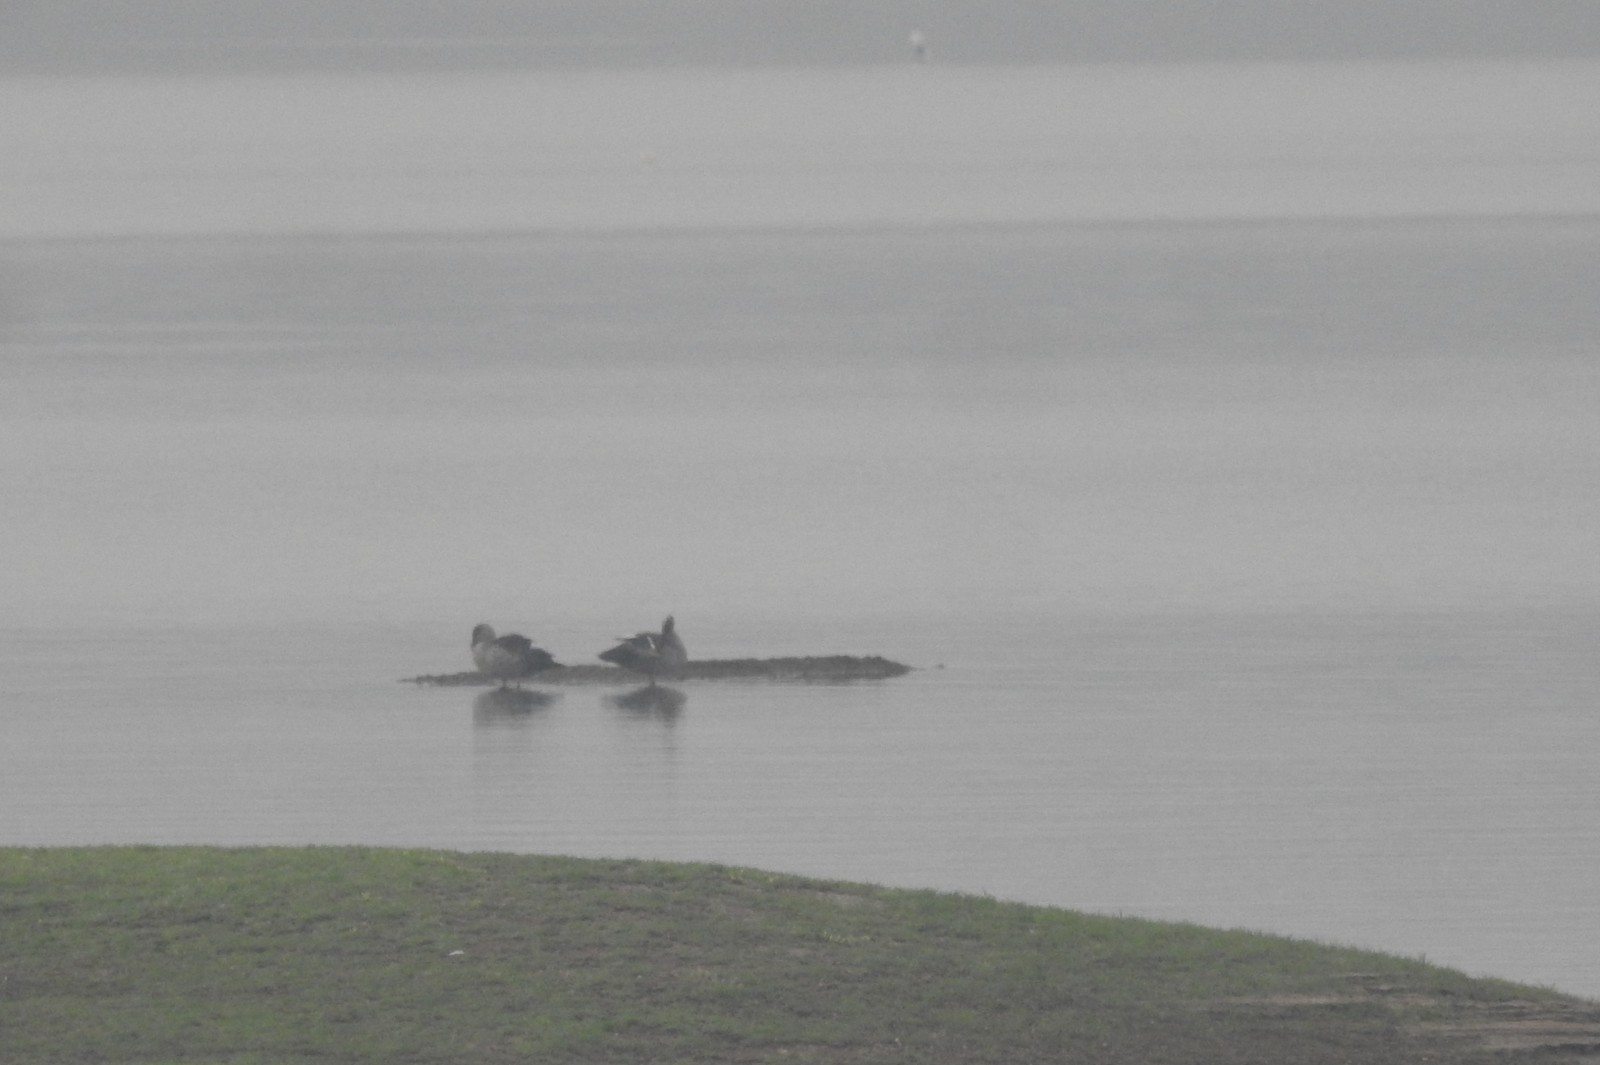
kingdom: Animalia
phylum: Chordata
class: Aves
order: Anseriformes
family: Anatidae
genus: Anas
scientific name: Anas poecilorhyncha
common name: Indian spot-billed duck
